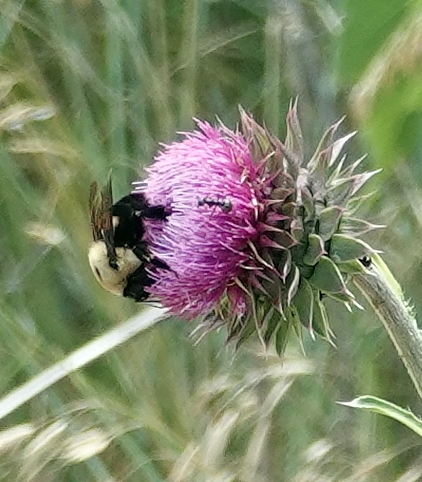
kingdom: Animalia
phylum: Arthropoda
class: Insecta
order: Hymenoptera
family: Apidae
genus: Bombus
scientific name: Bombus griseocollis
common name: Brown-belted bumble bee
